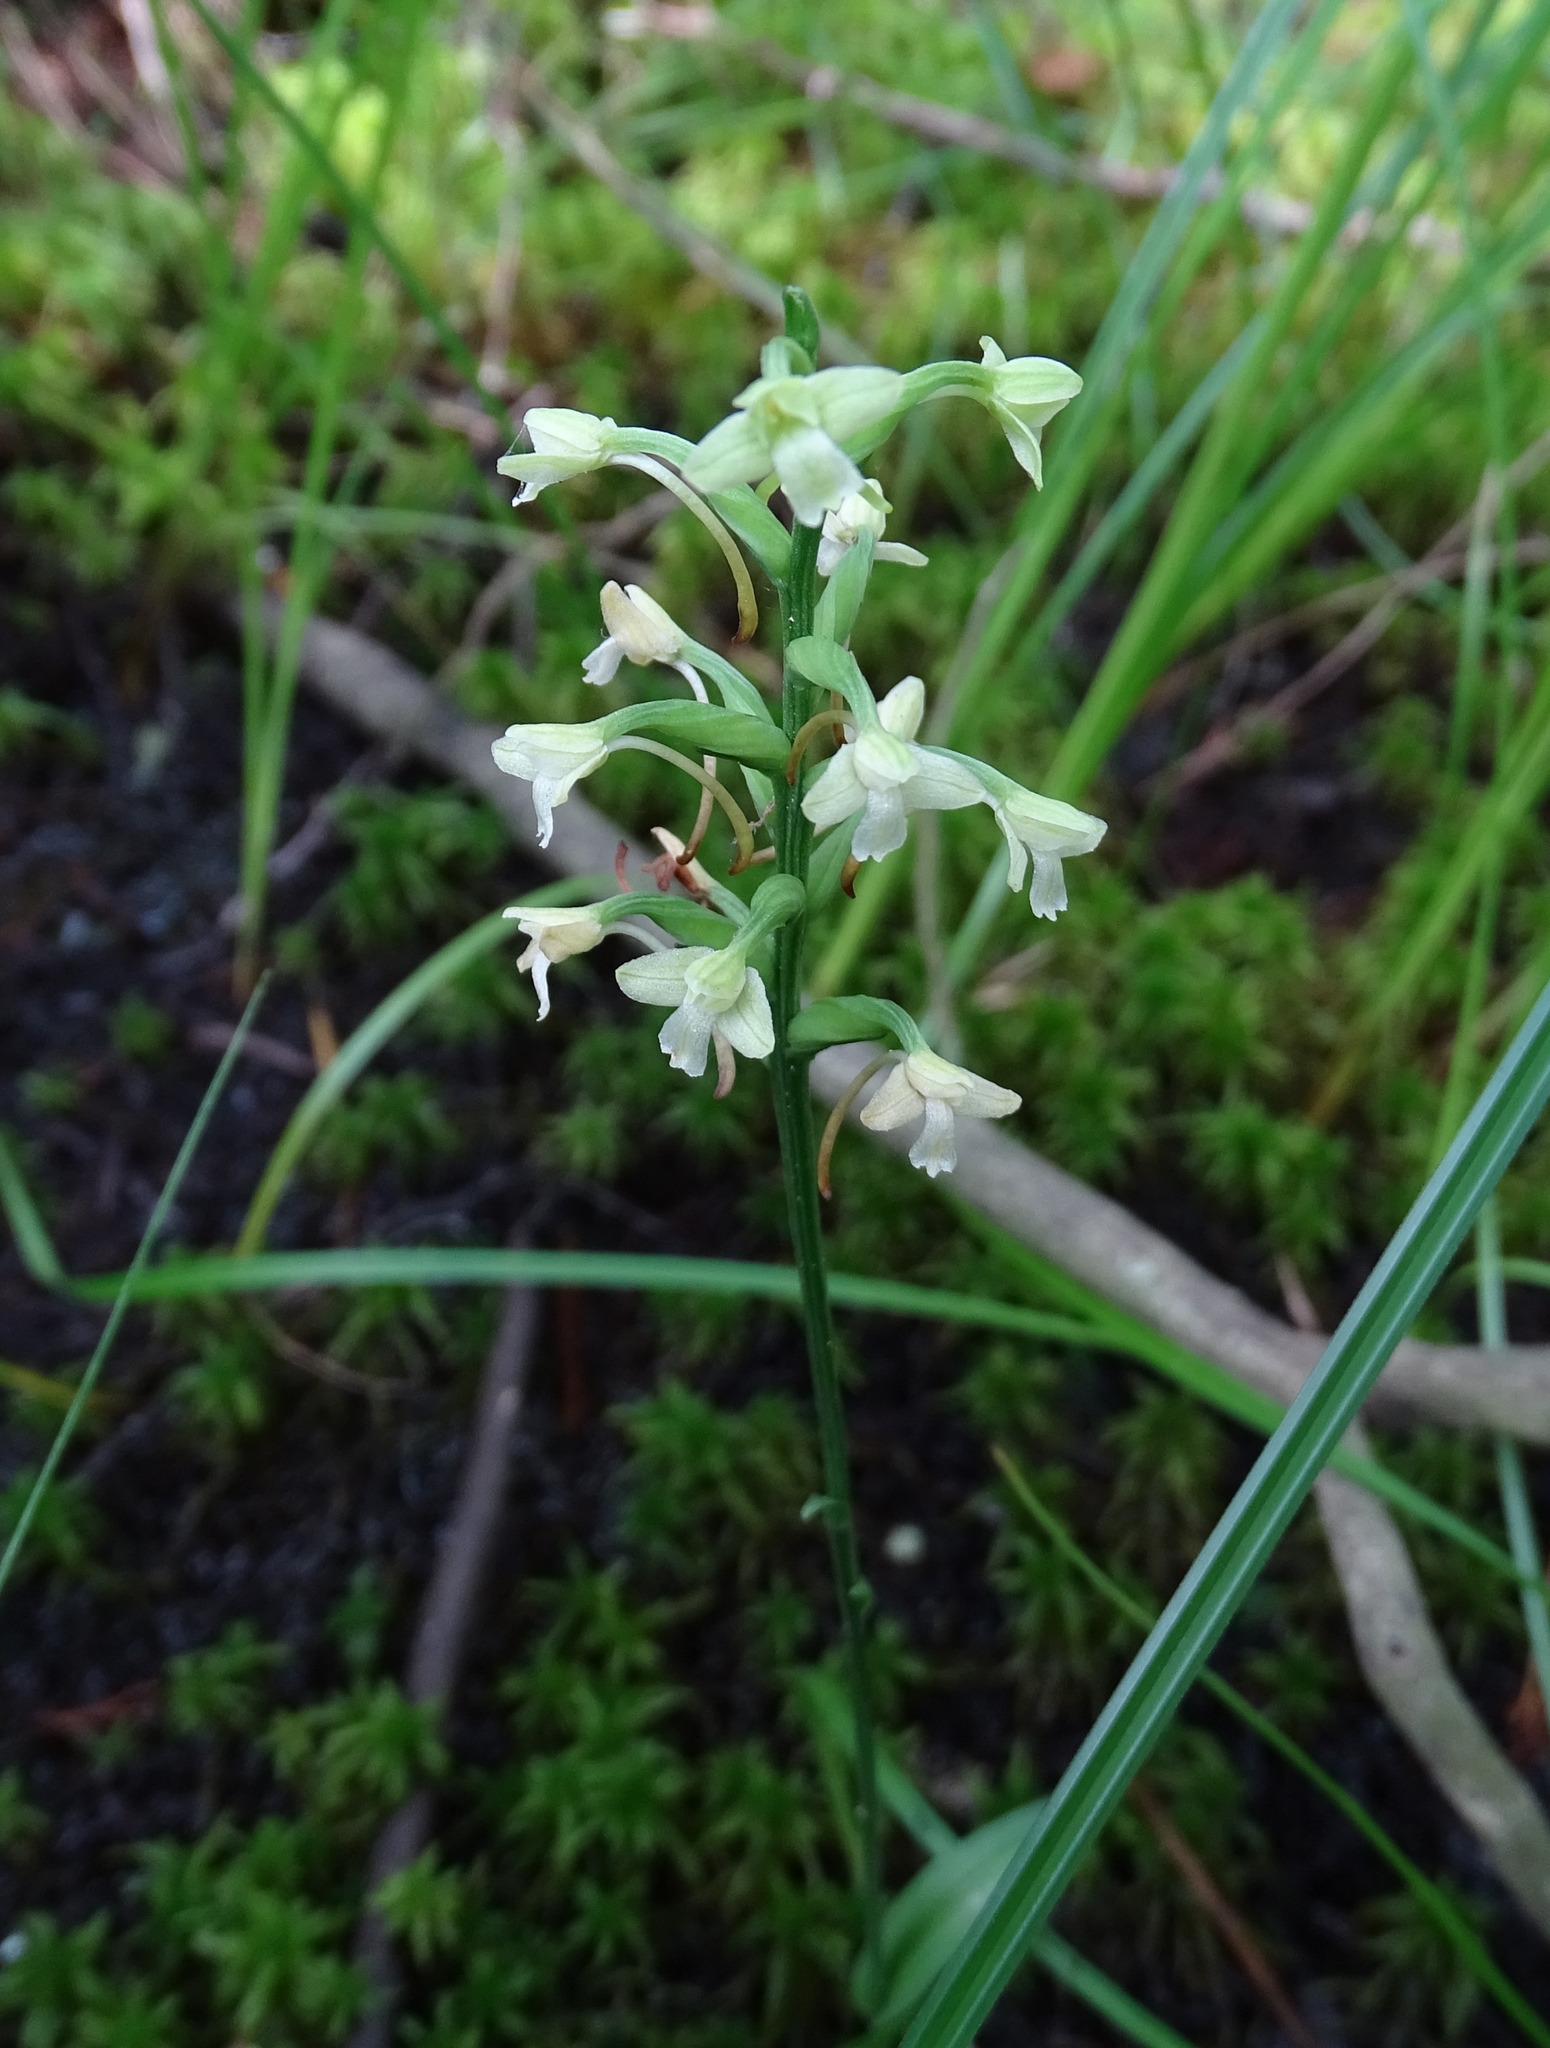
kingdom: Plantae
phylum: Tracheophyta
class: Liliopsida
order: Asparagales
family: Orchidaceae
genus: Platanthera
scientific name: Platanthera clavellata
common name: Club-spur orchid
